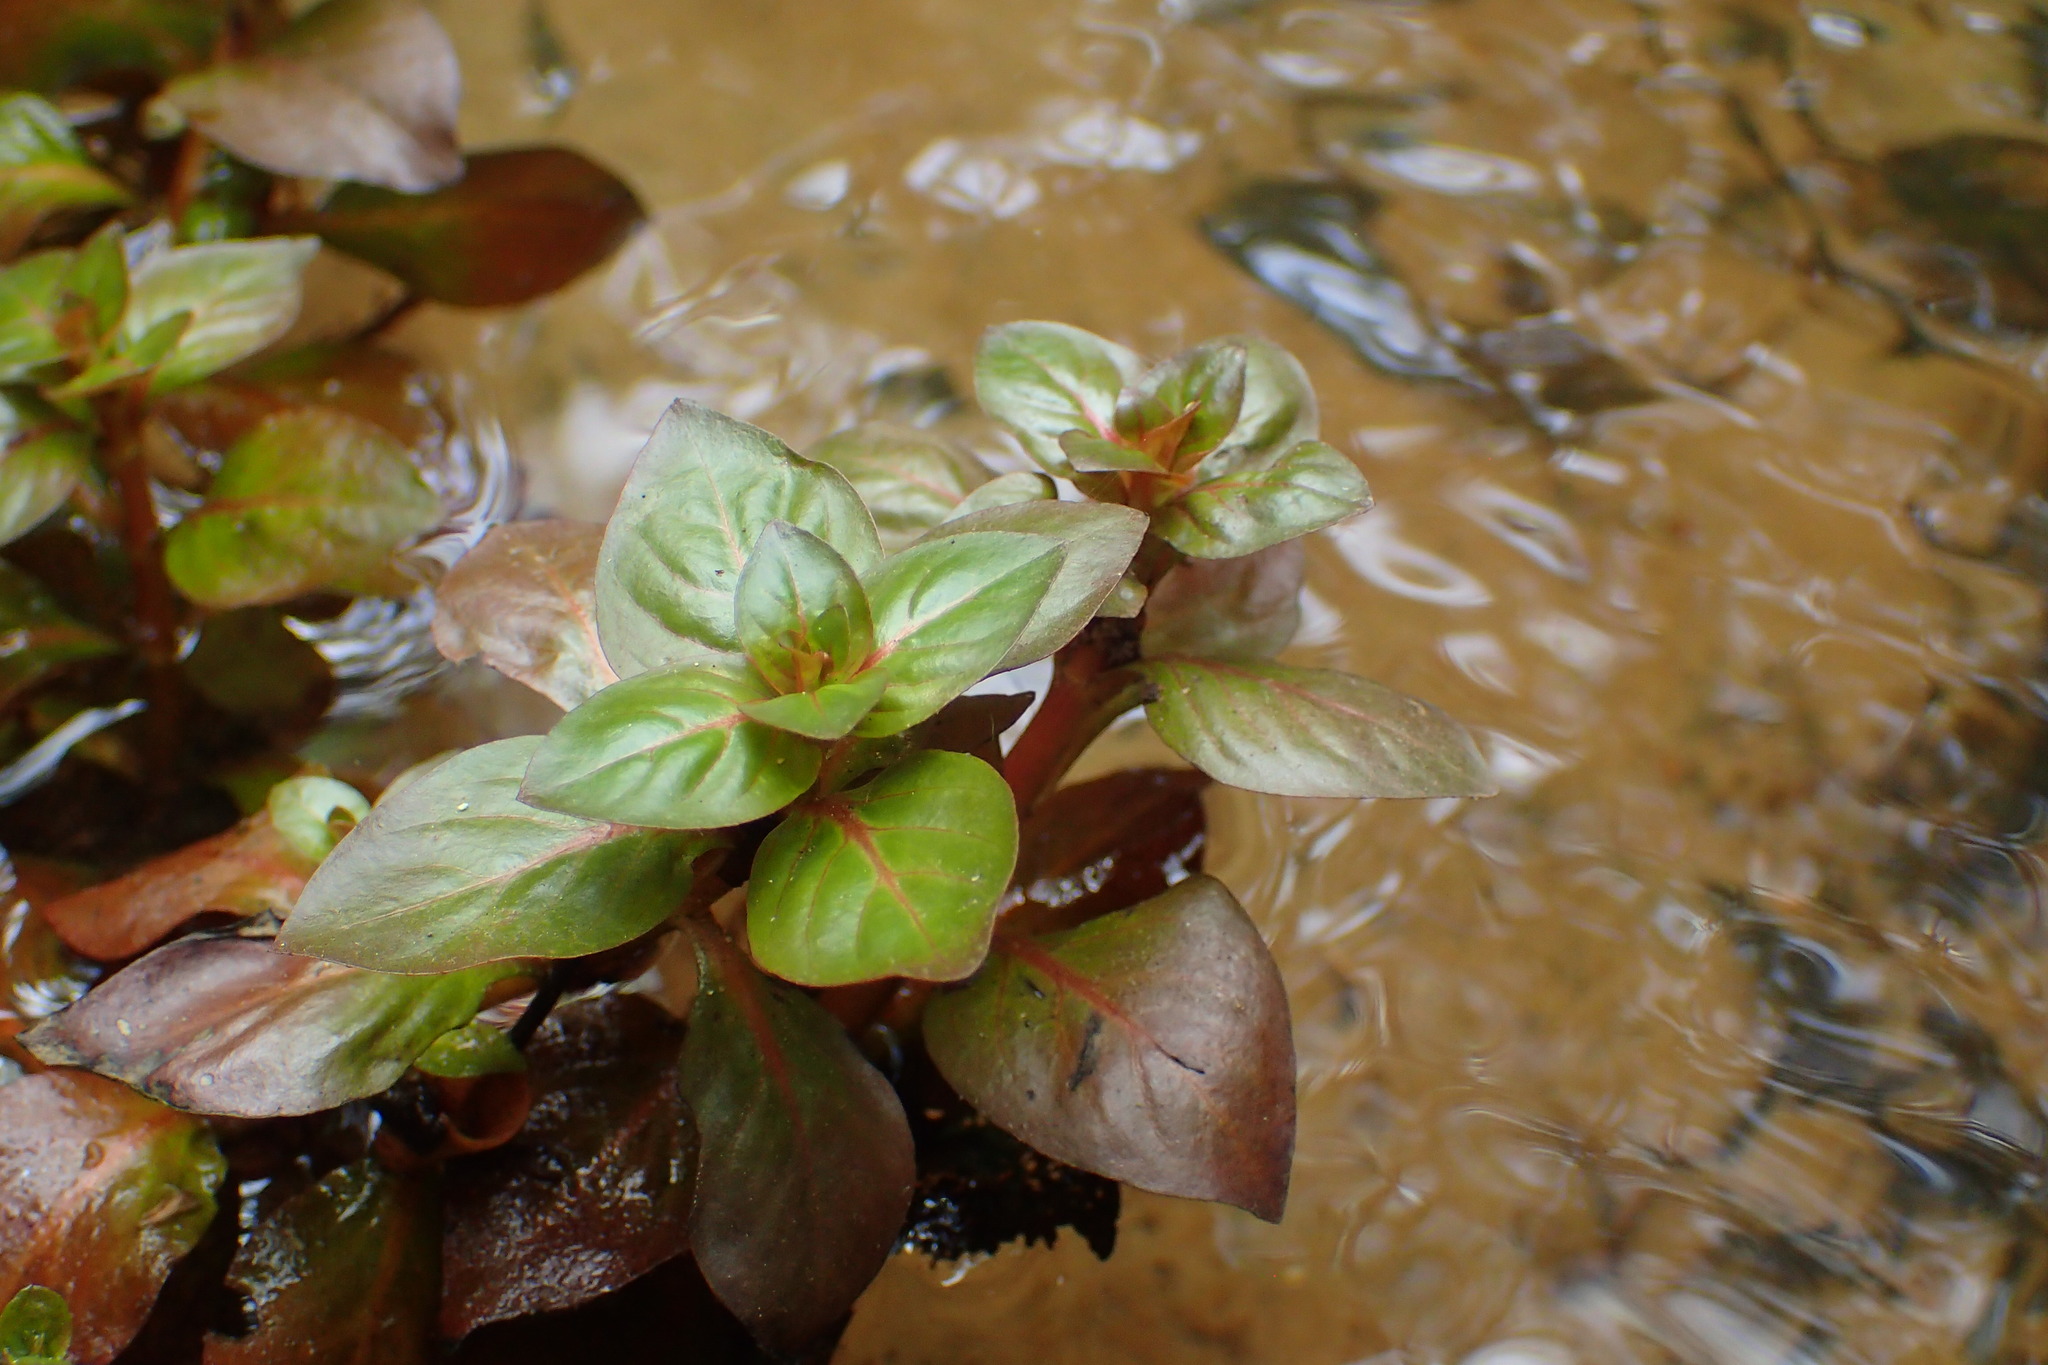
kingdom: Plantae
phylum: Tracheophyta
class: Magnoliopsida
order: Myrtales
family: Onagraceae
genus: Ludwigia
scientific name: Ludwigia repens
